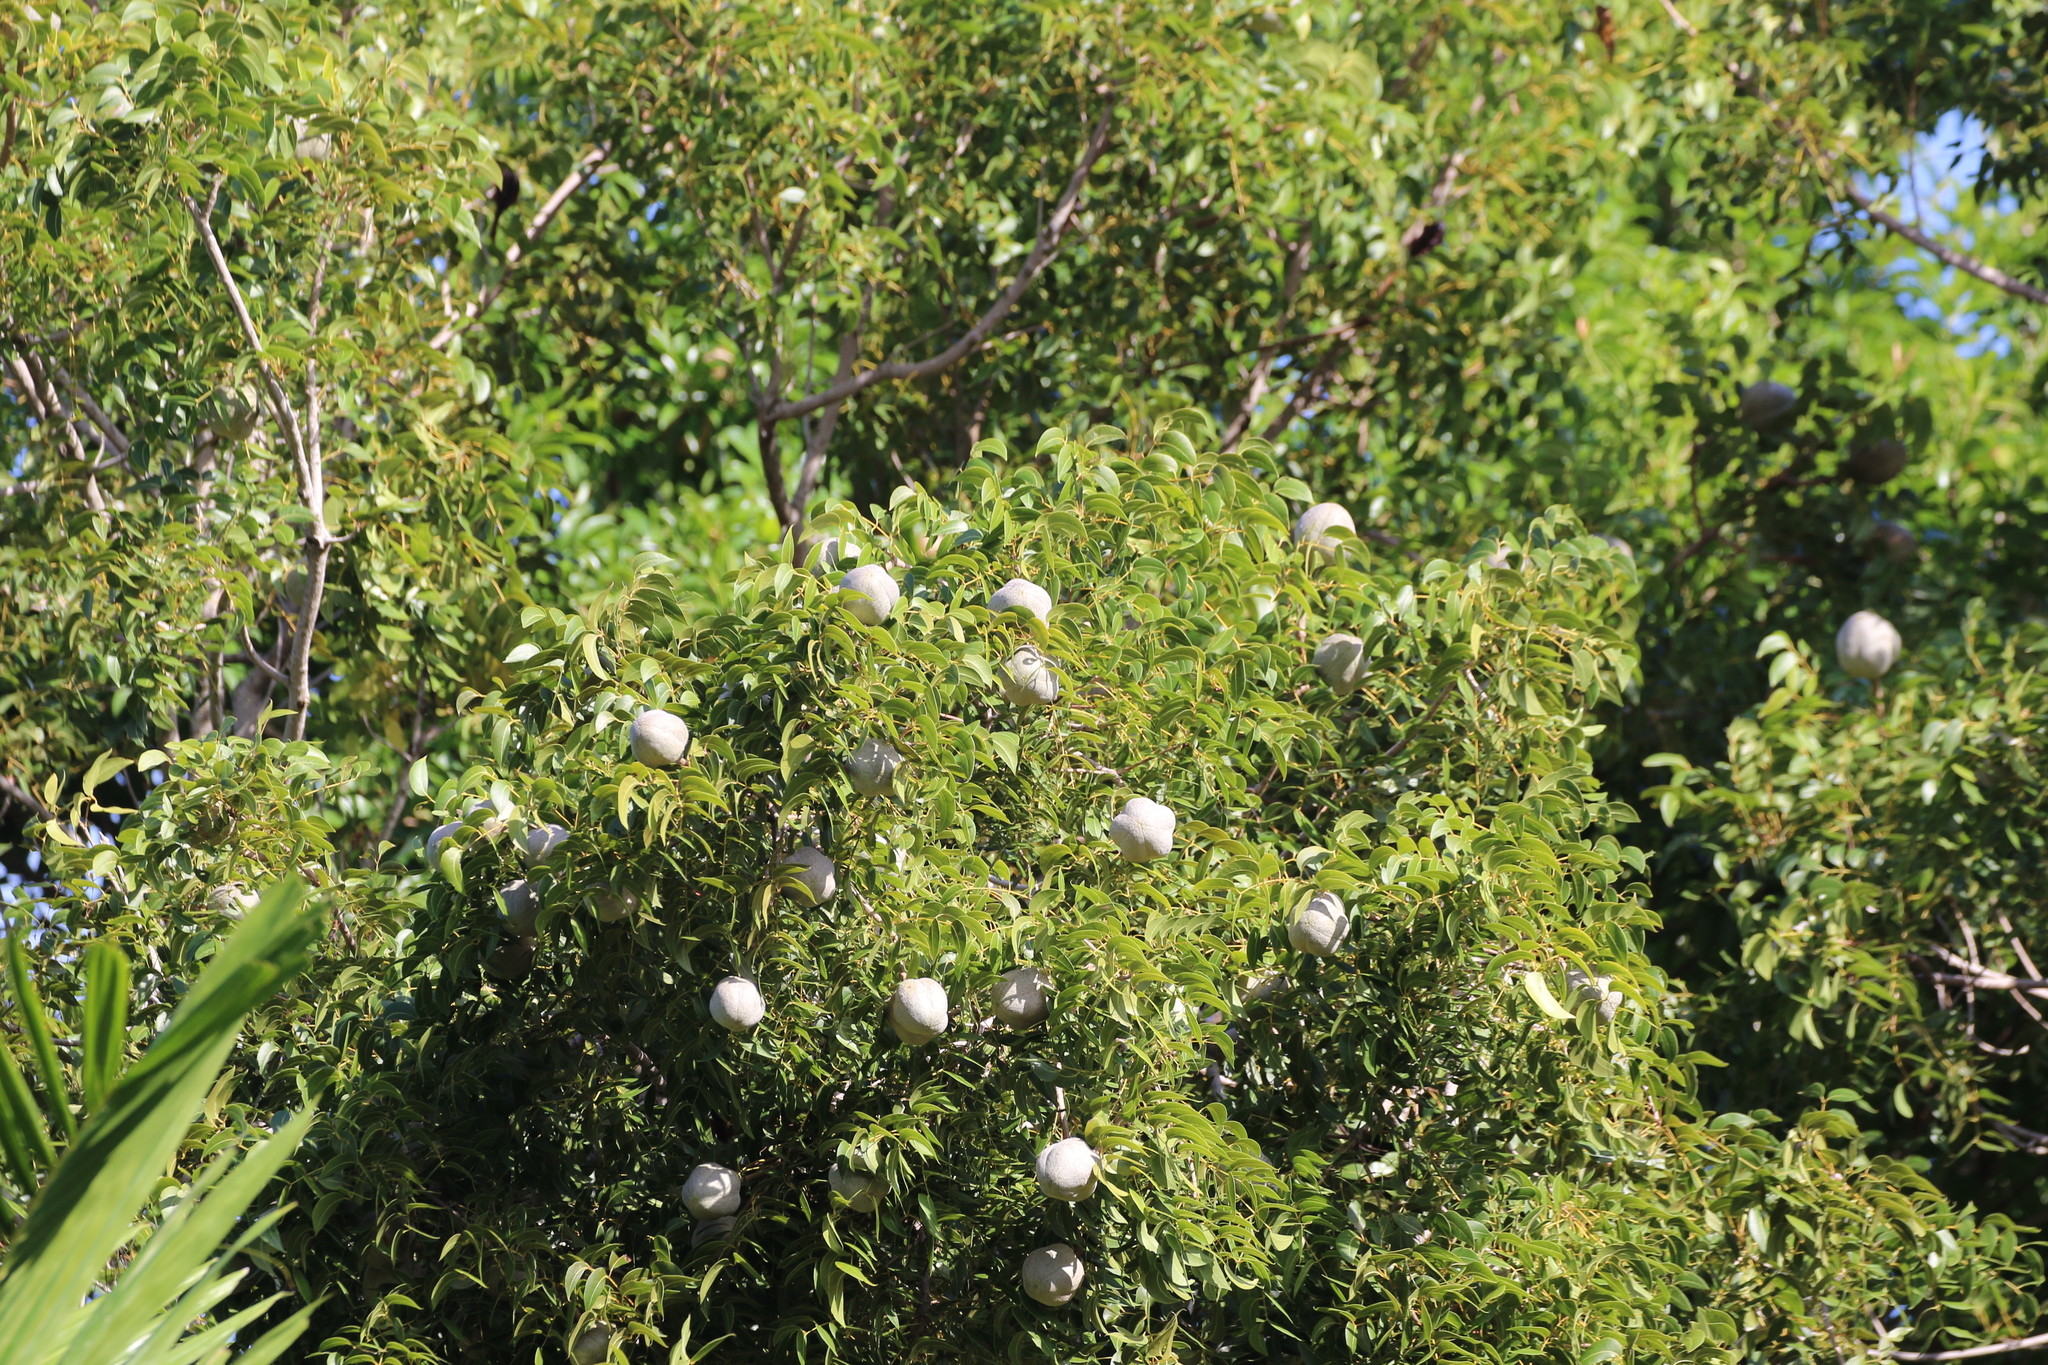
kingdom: Plantae
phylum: Tracheophyta
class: Magnoliopsida
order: Sapindales
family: Meliaceae
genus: Swietenia
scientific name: Swietenia mahagoni
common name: West indian mahogany
